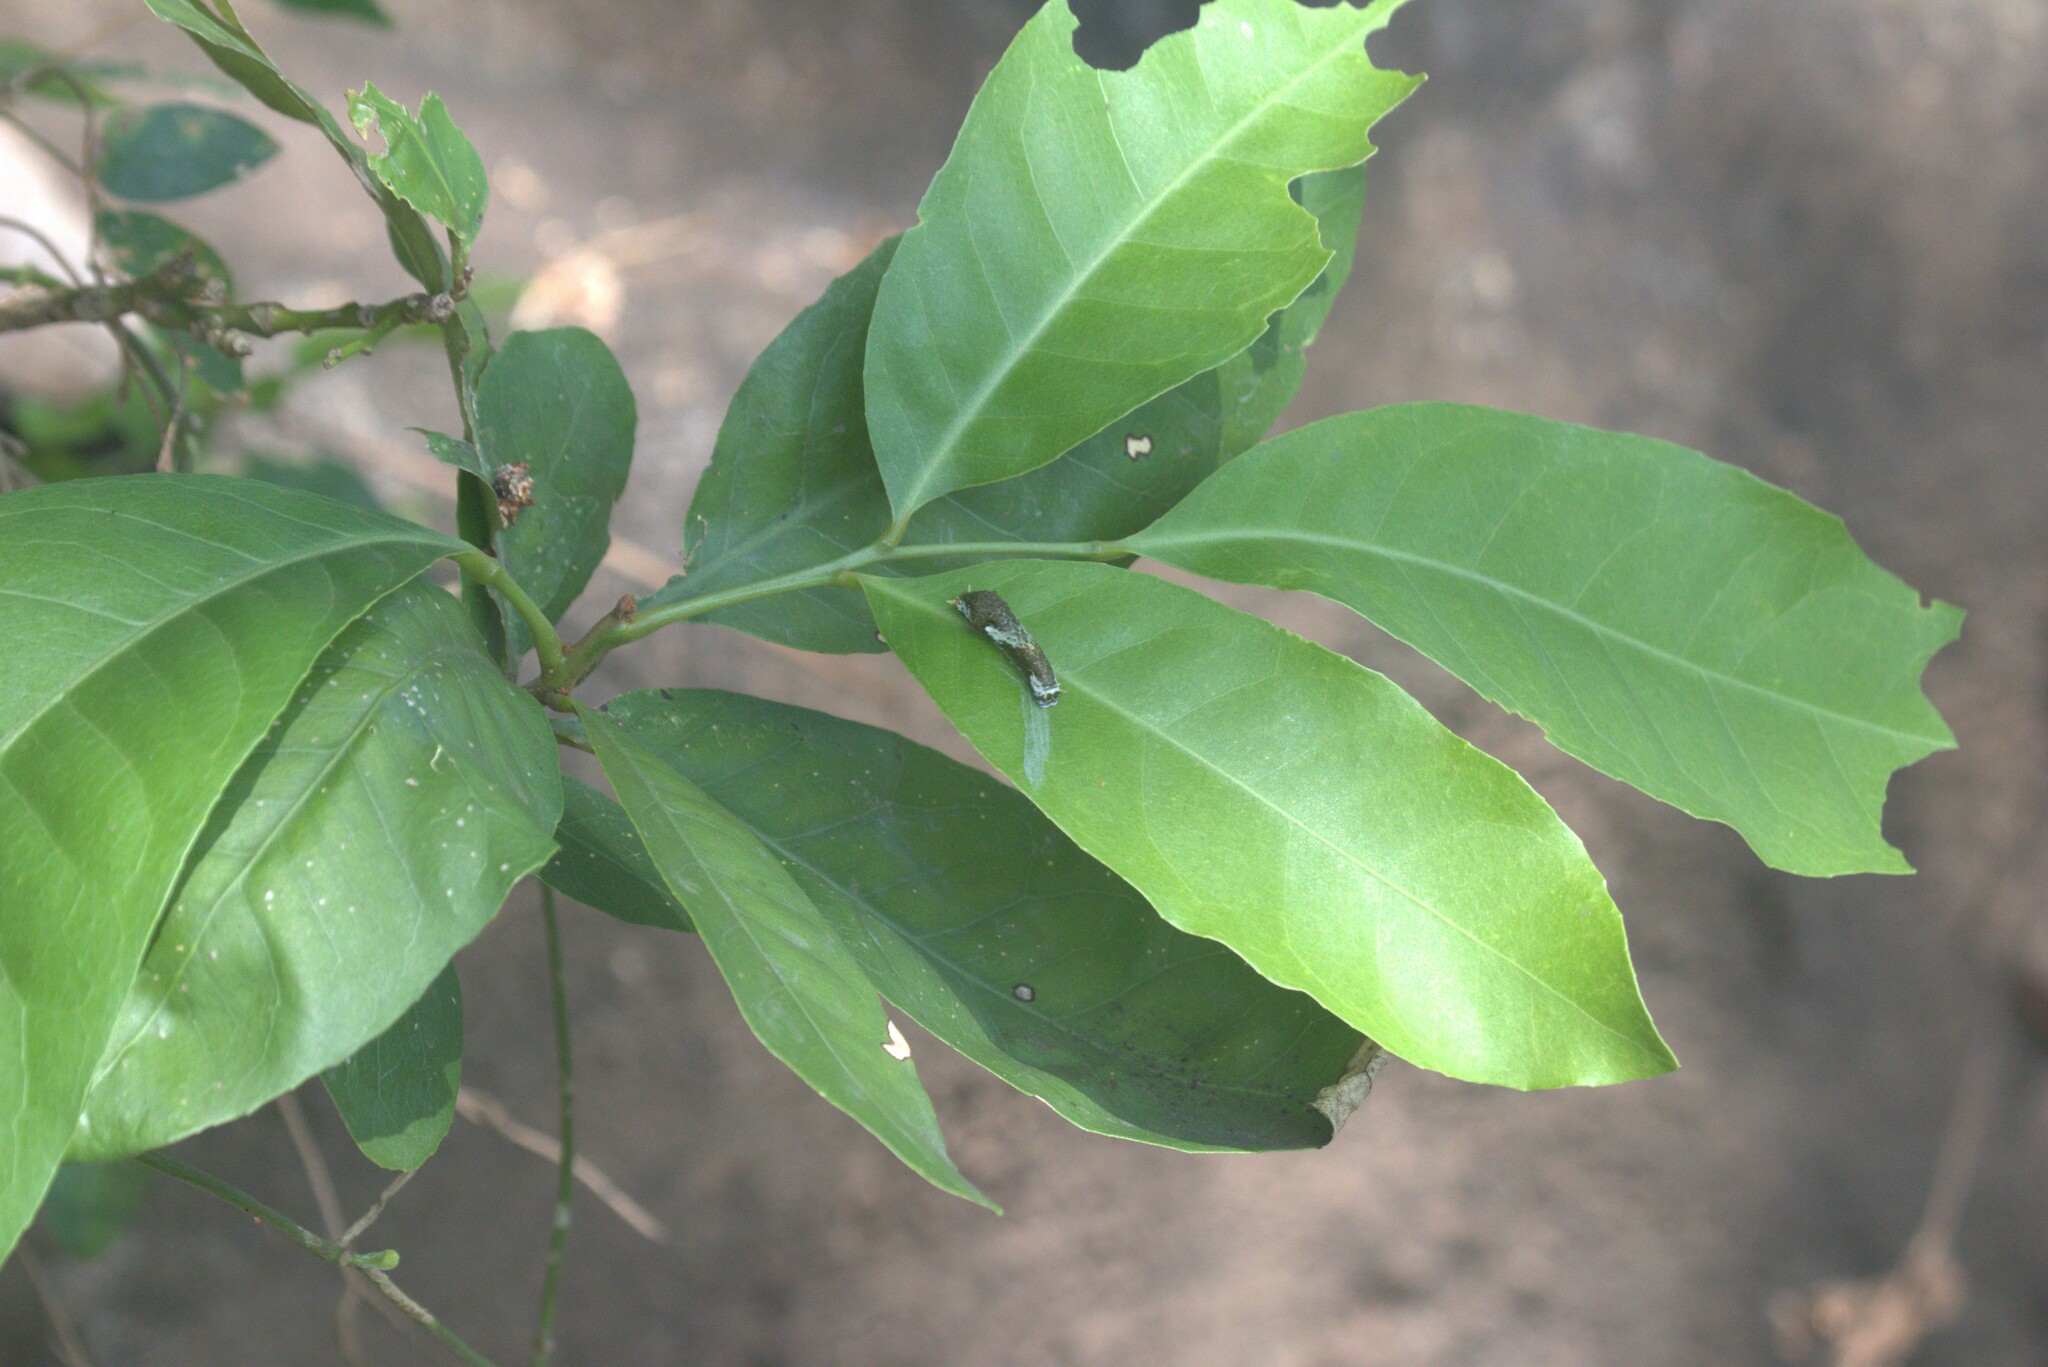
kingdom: Animalia
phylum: Arthropoda
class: Insecta
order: Lepidoptera
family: Papilionidae
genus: Papilio
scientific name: Papilio polytes
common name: Common mormon
